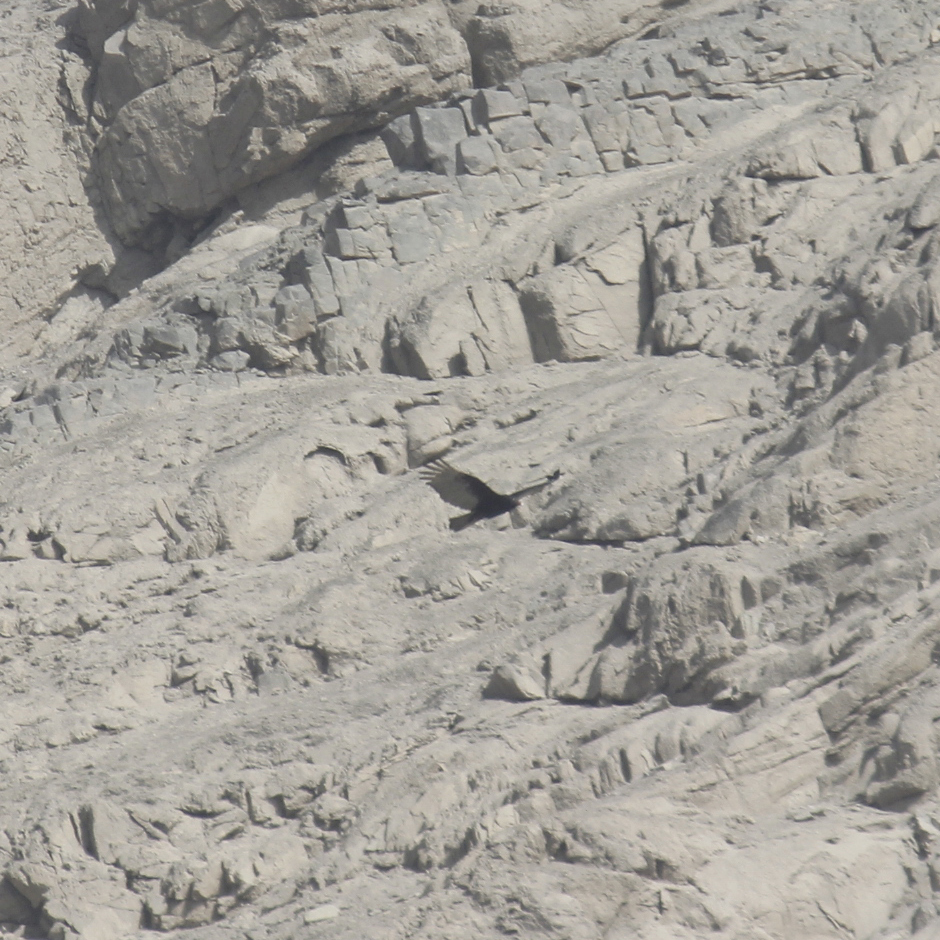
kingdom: Animalia
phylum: Chordata
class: Aves
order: Accipitriformes
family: Cathartidae
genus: Cathartes
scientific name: Cathartes aura
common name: Turkey vulture
